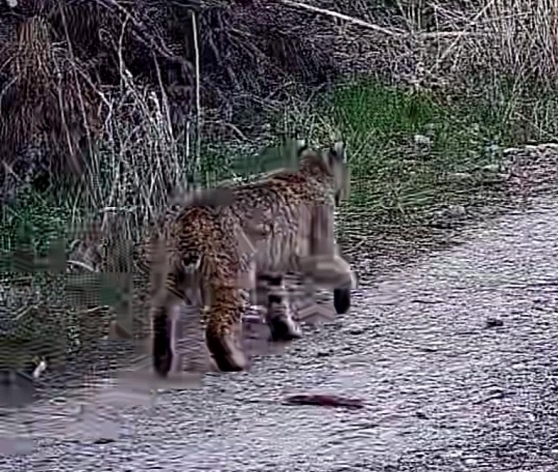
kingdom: Animalia
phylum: Chordata
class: Mammalia
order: Carnivora
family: Felidae
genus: Lynx
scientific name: Lynx rufus
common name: Bobcat
